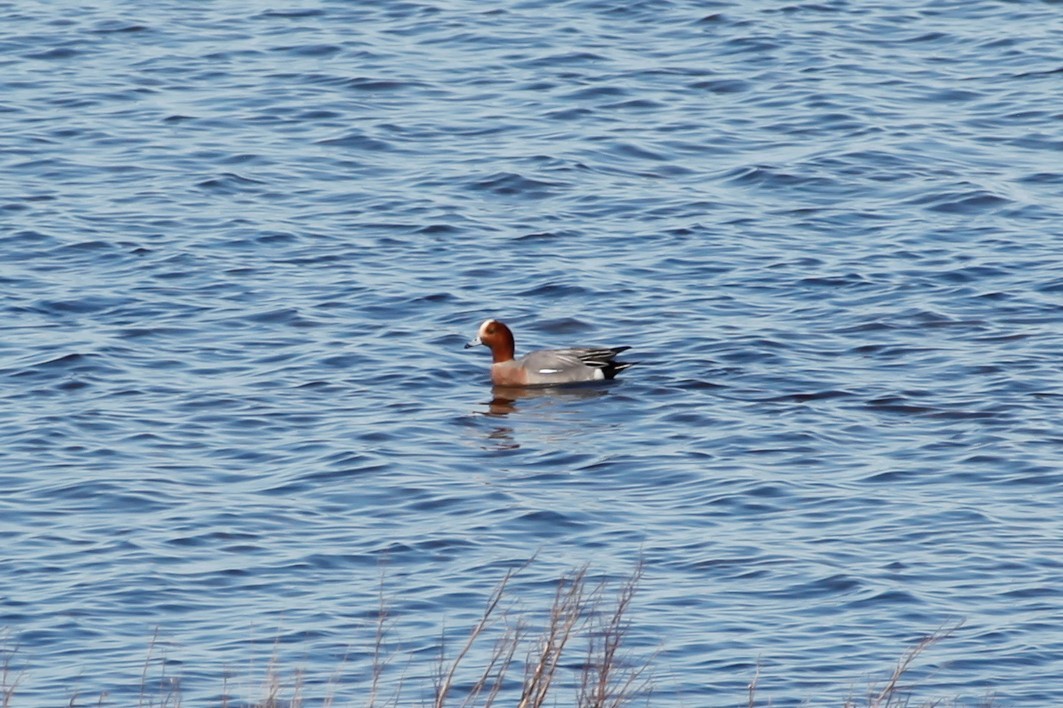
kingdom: Animalia
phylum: Chordata
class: Aves
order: Anseriformes
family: Anatidae
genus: Mareca
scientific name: Mareca penelope
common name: Eurasian wigeon
